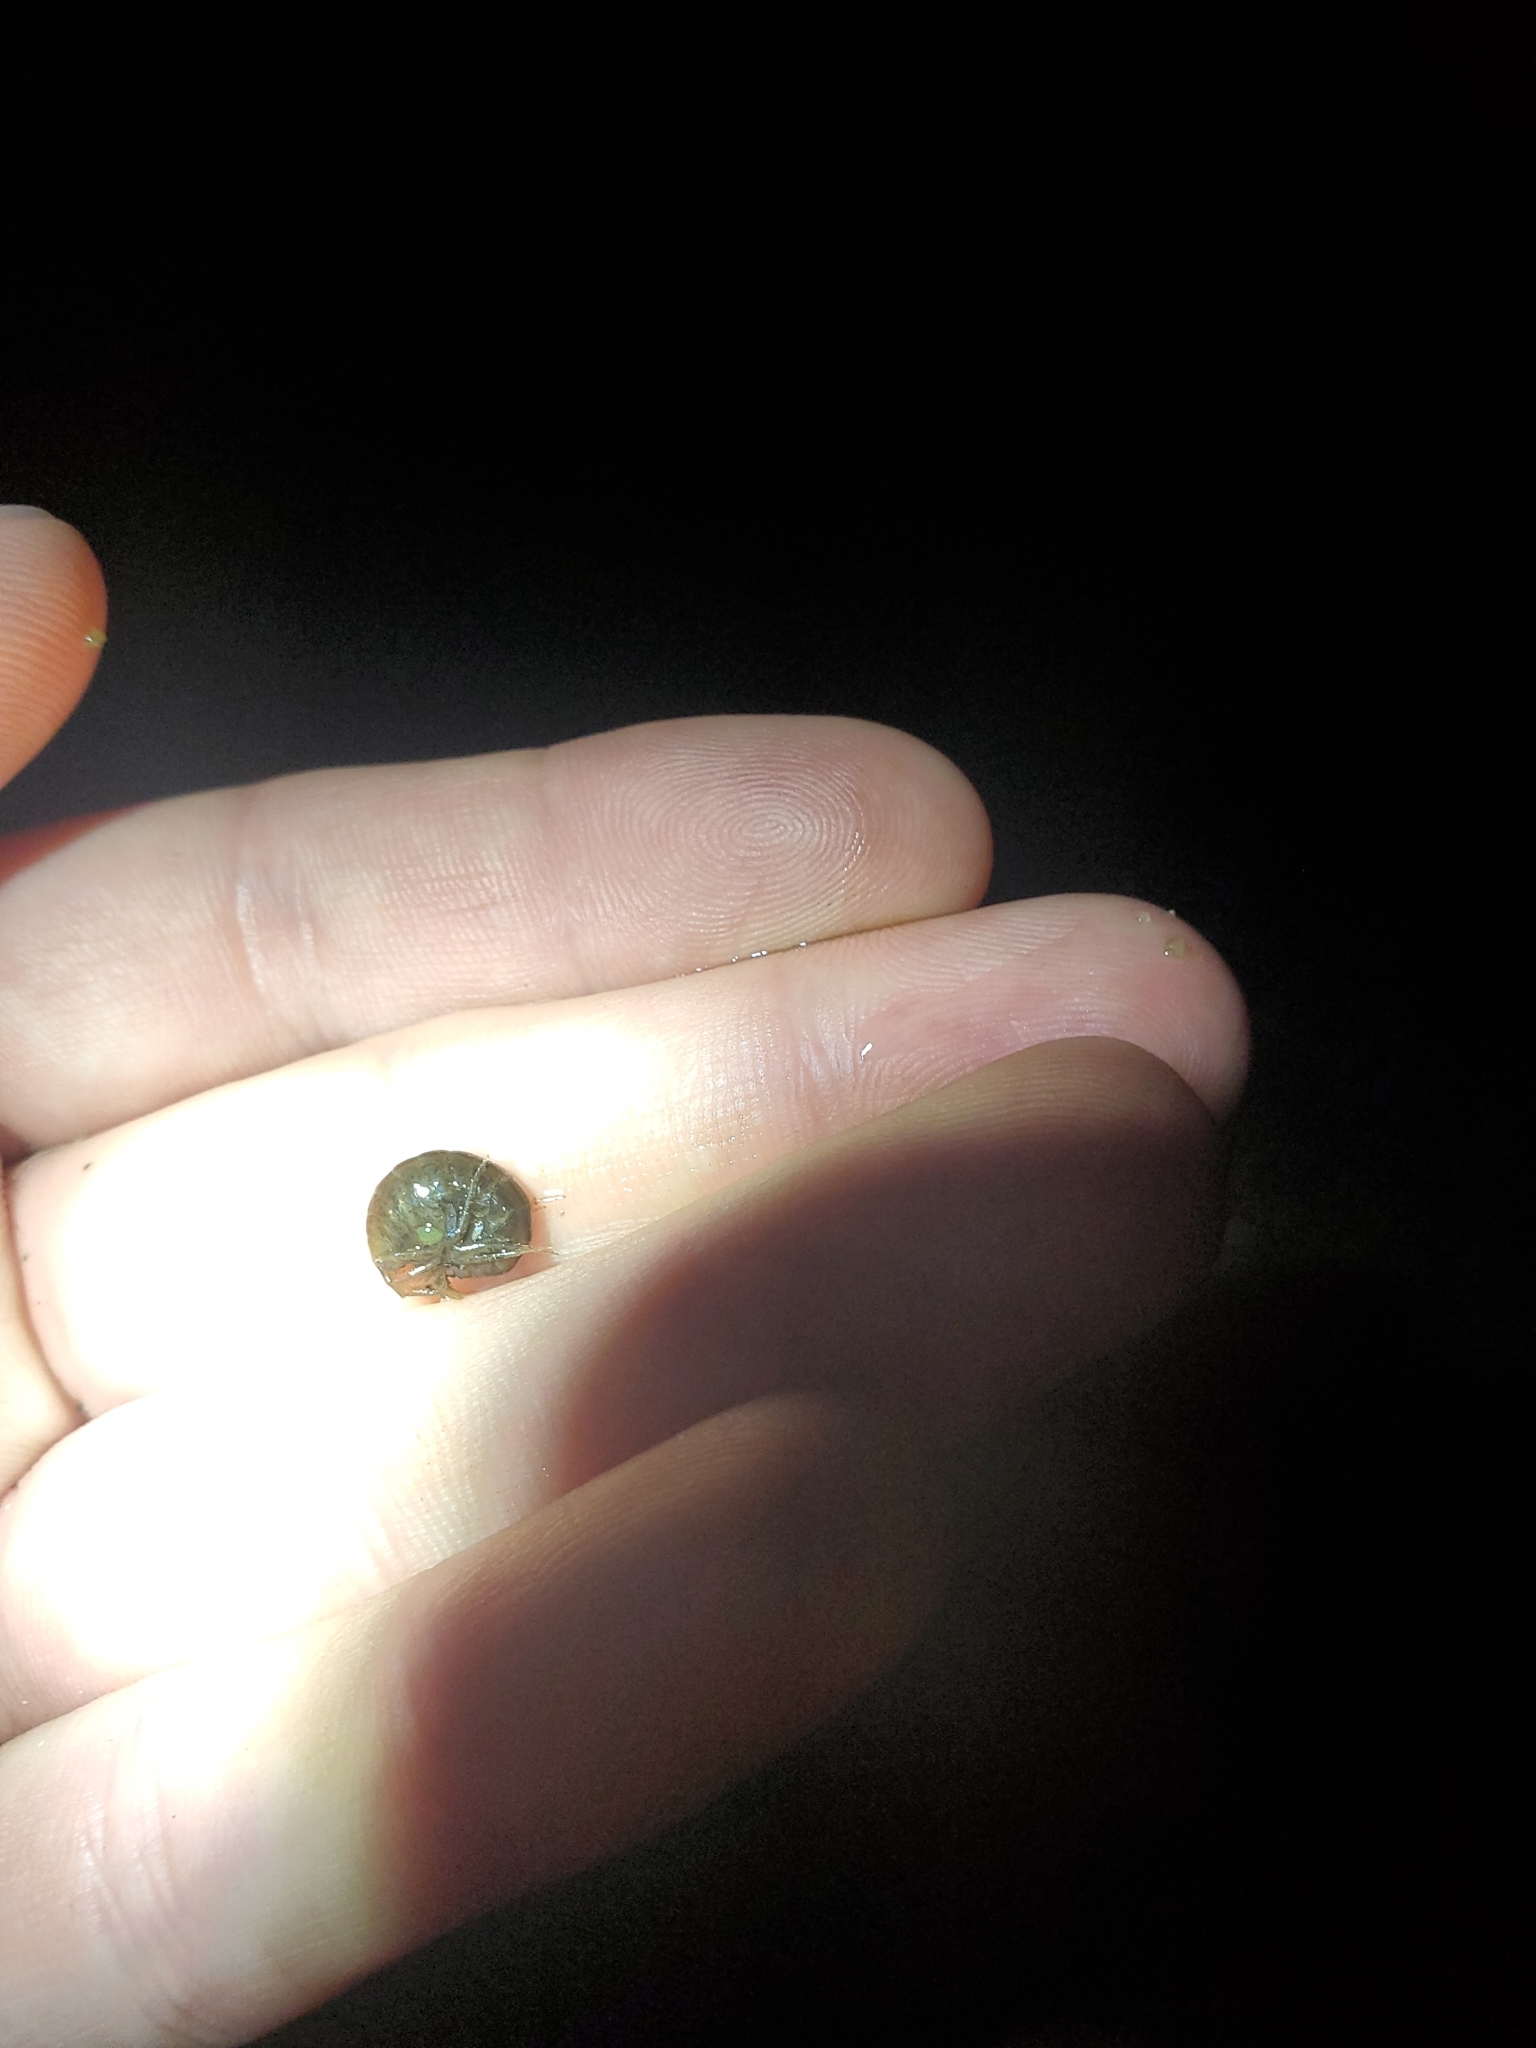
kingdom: Animalia
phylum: Arthropoda
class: Malacostraca
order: Amphipoda
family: Gammaridae
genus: Gammarus
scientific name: Gammarus lacustris
